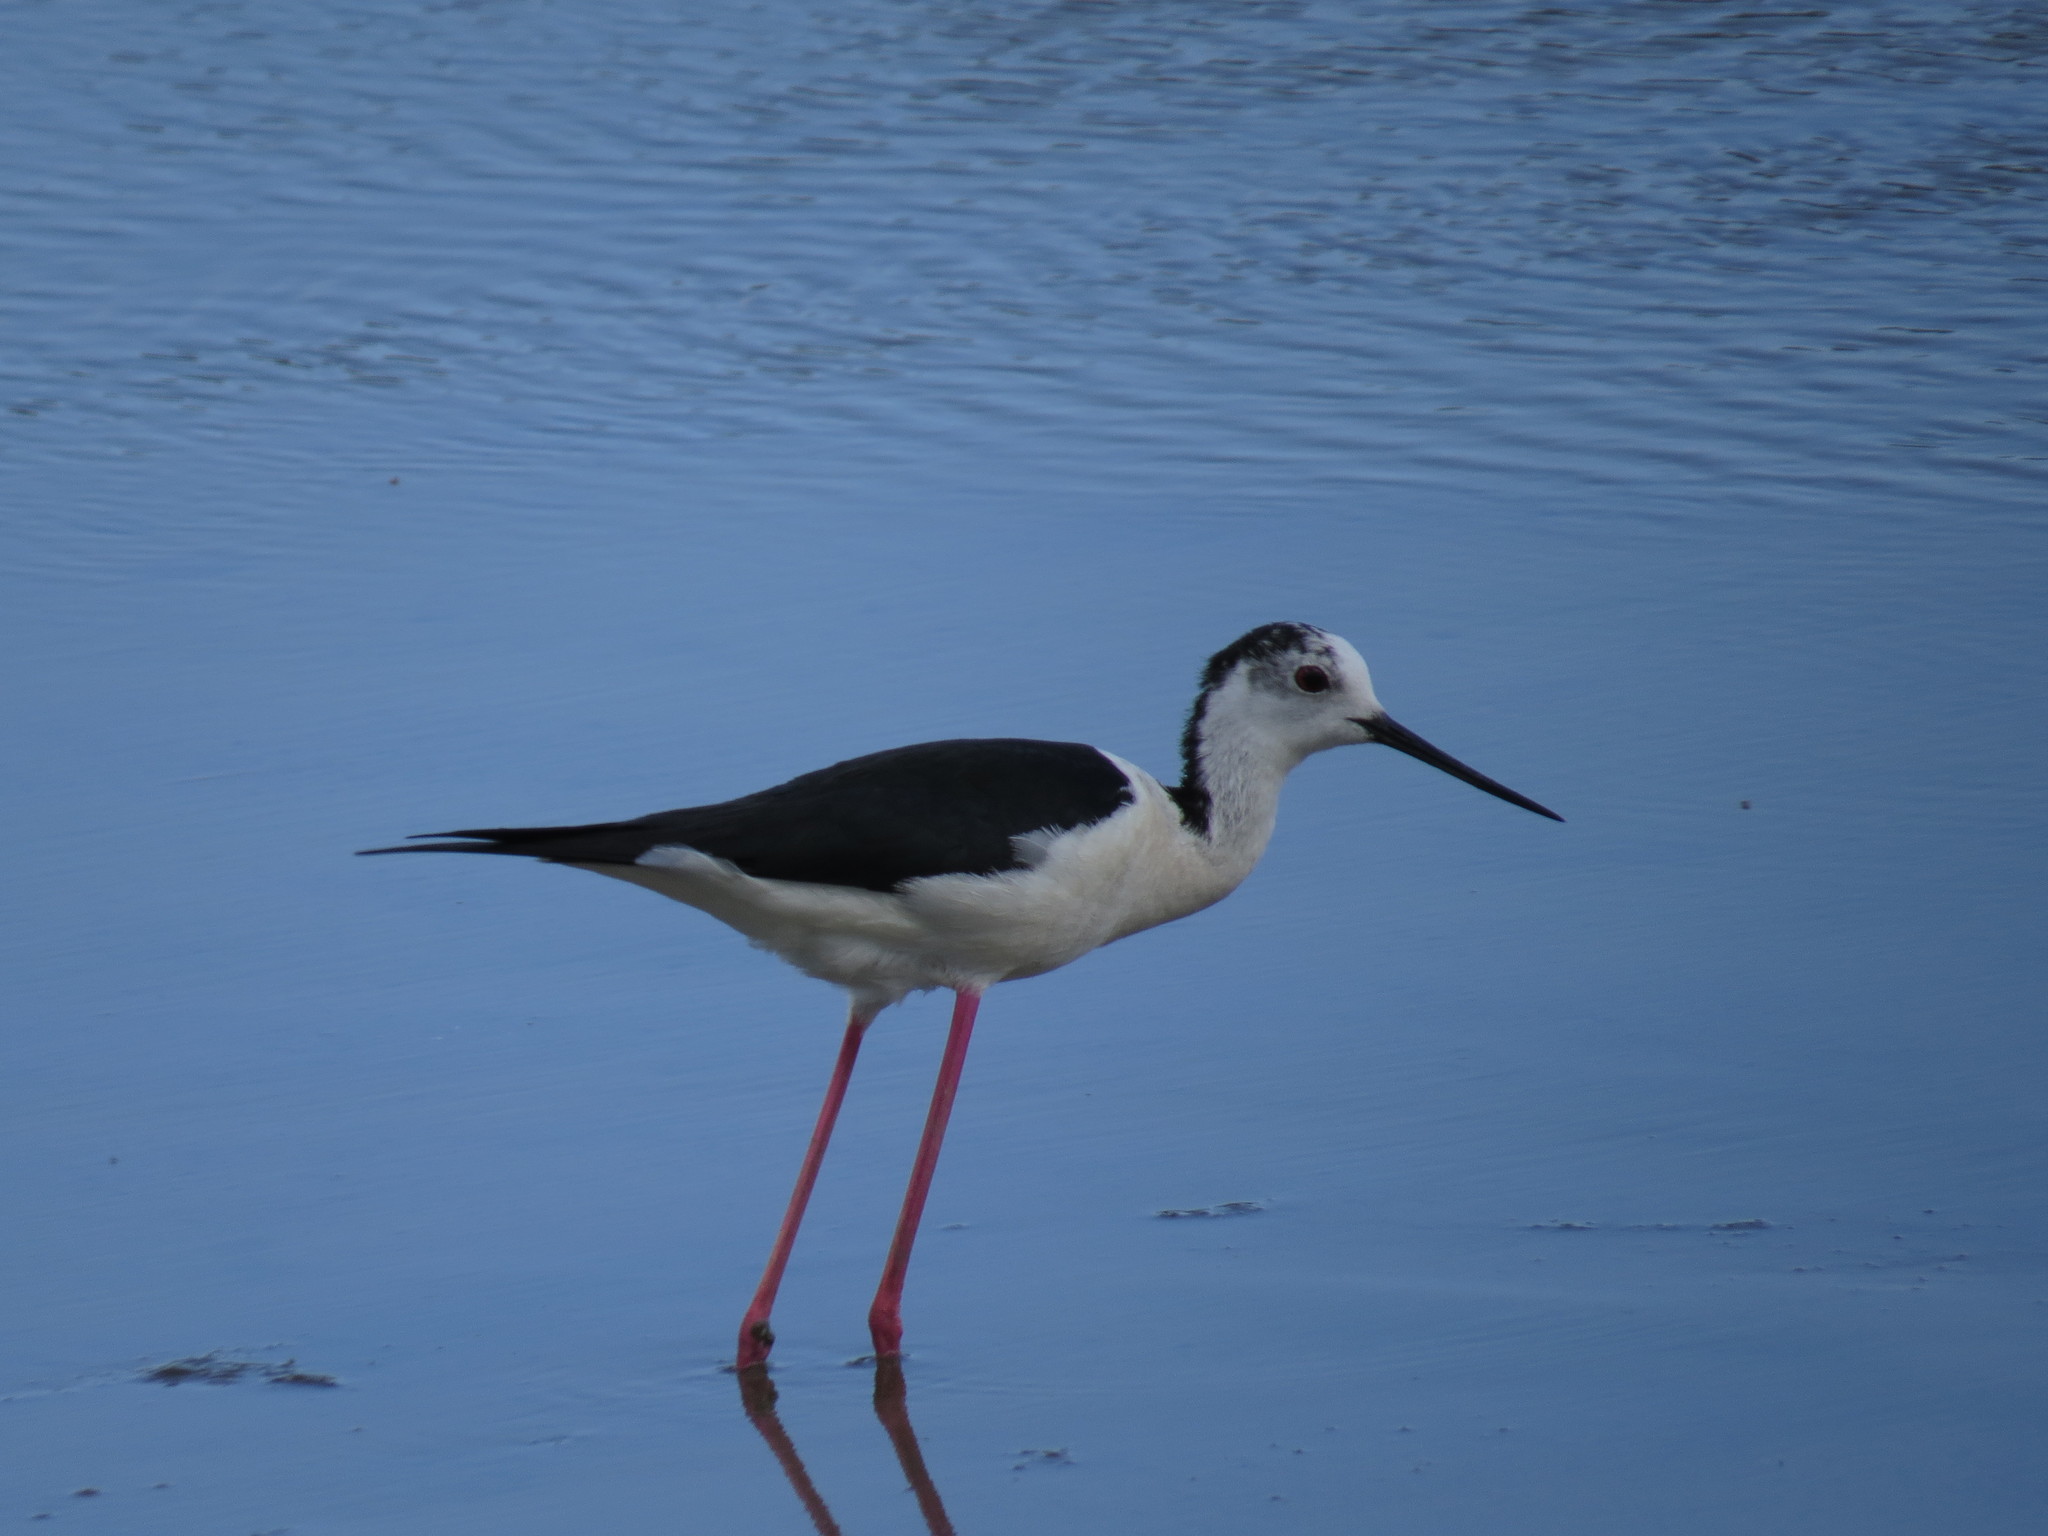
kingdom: Animalia
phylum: Chordata
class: Aves
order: Charadriiformes
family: Recurvirostridae
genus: Himantopus
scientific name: Himantopus himantopus
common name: Black-winged stilt
